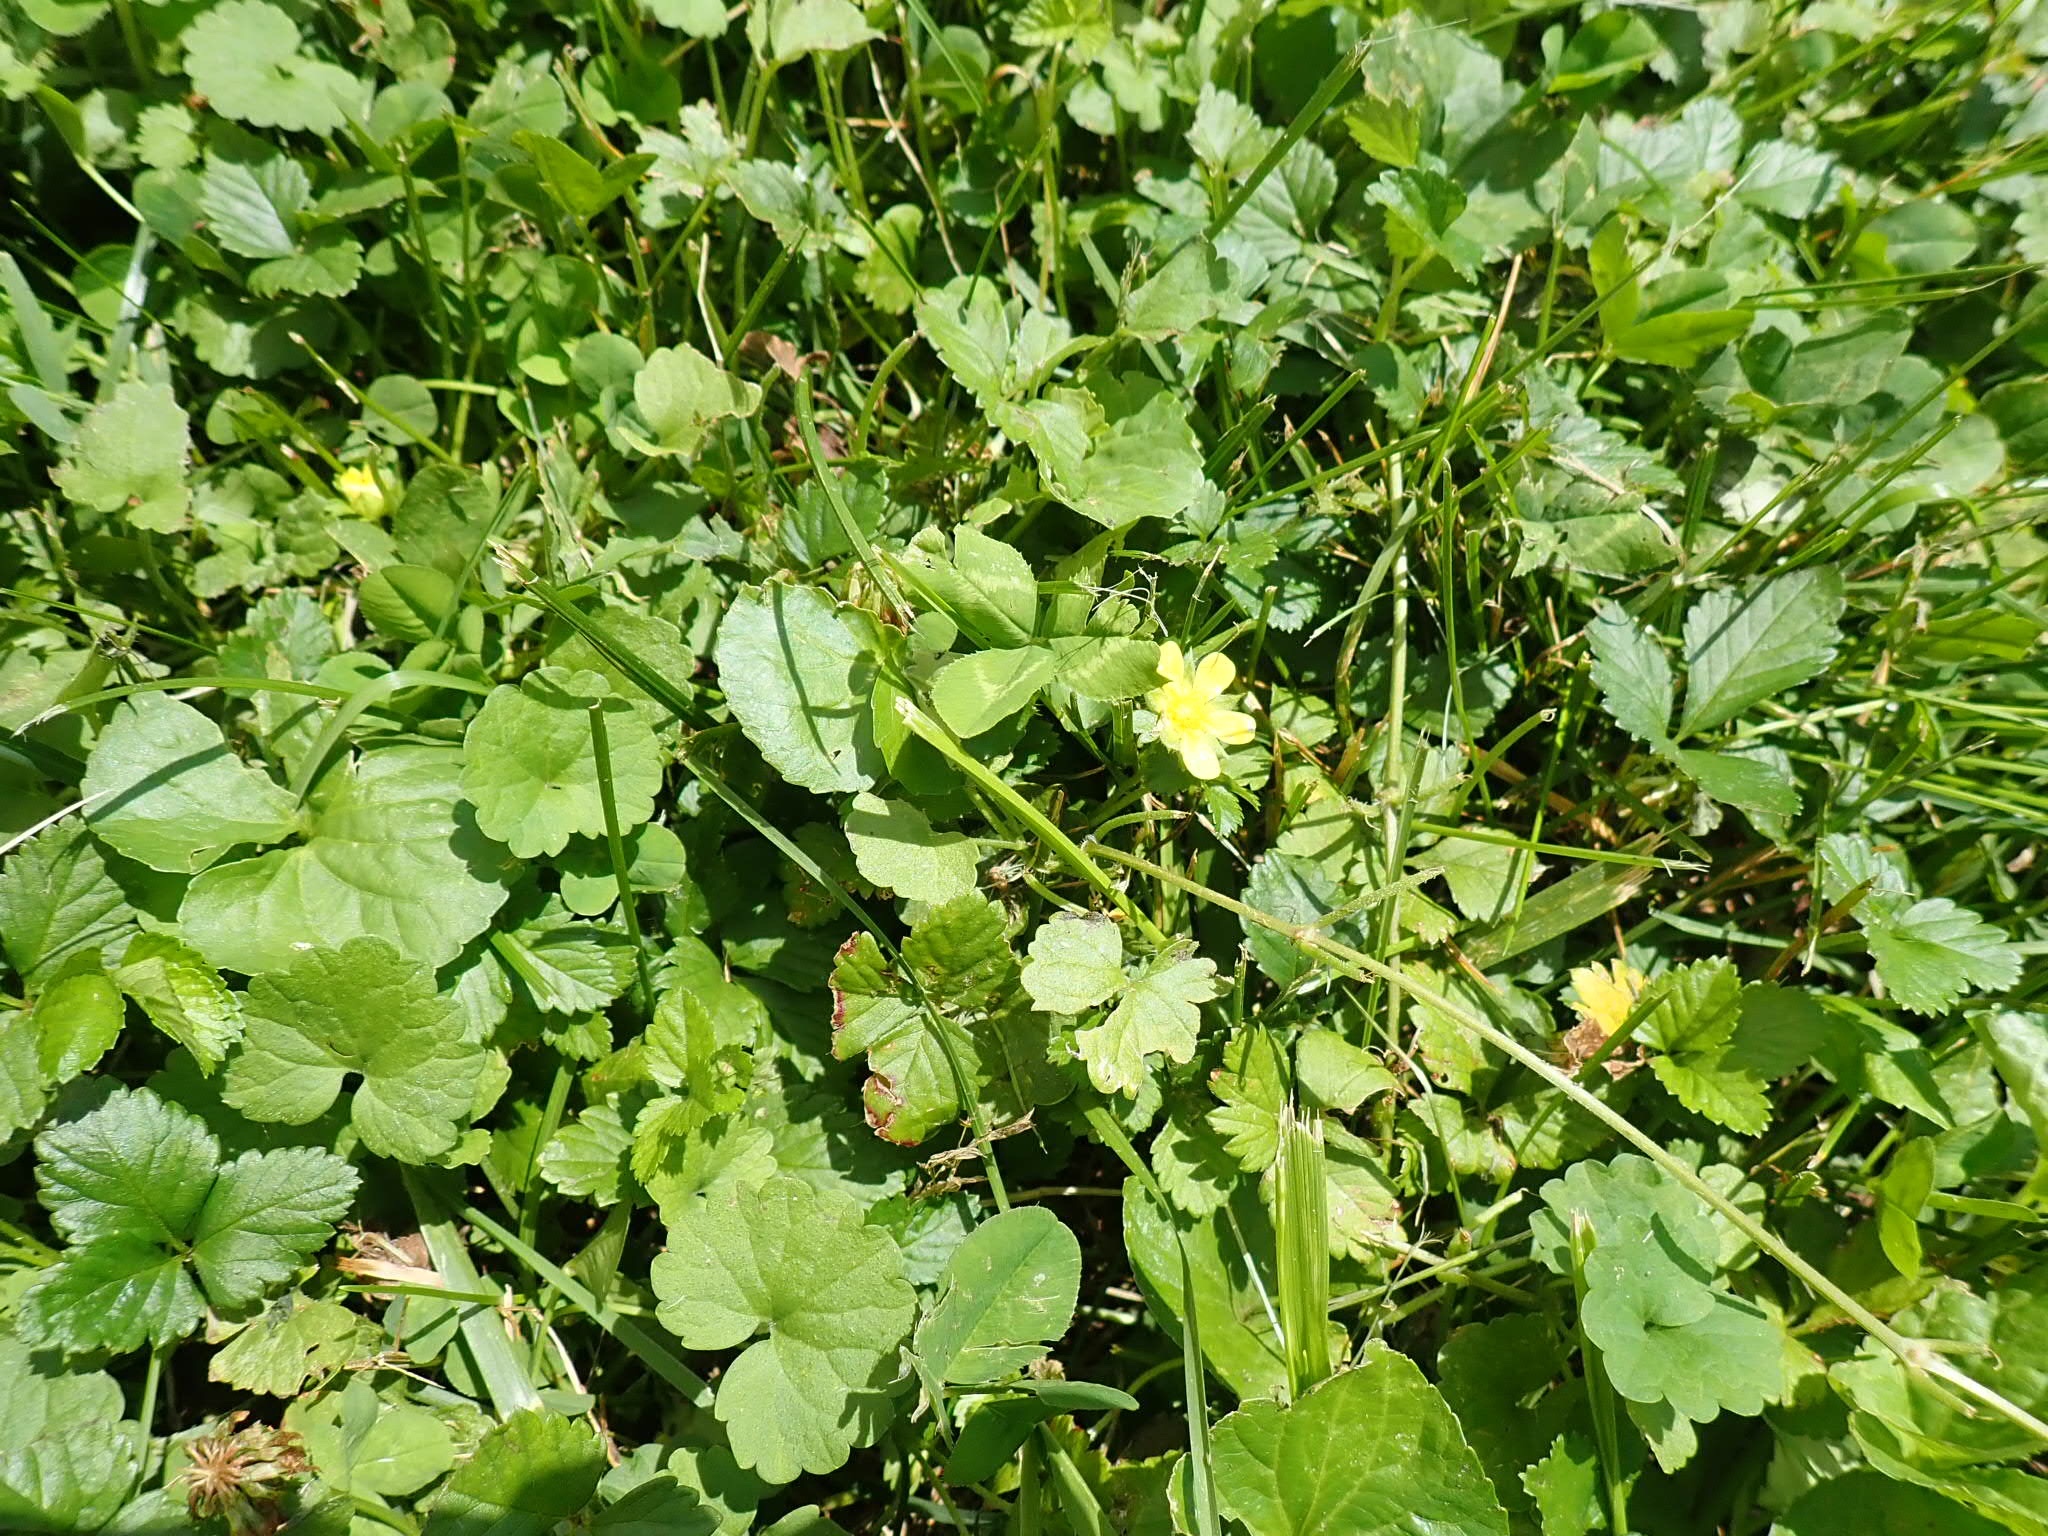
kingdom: Plantae
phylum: Tracheophyta
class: Magnoliopsida
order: Rosales
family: Rosaceae
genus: Potentilla
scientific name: Potentilla indica
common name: Yellow-flowered strawberry
